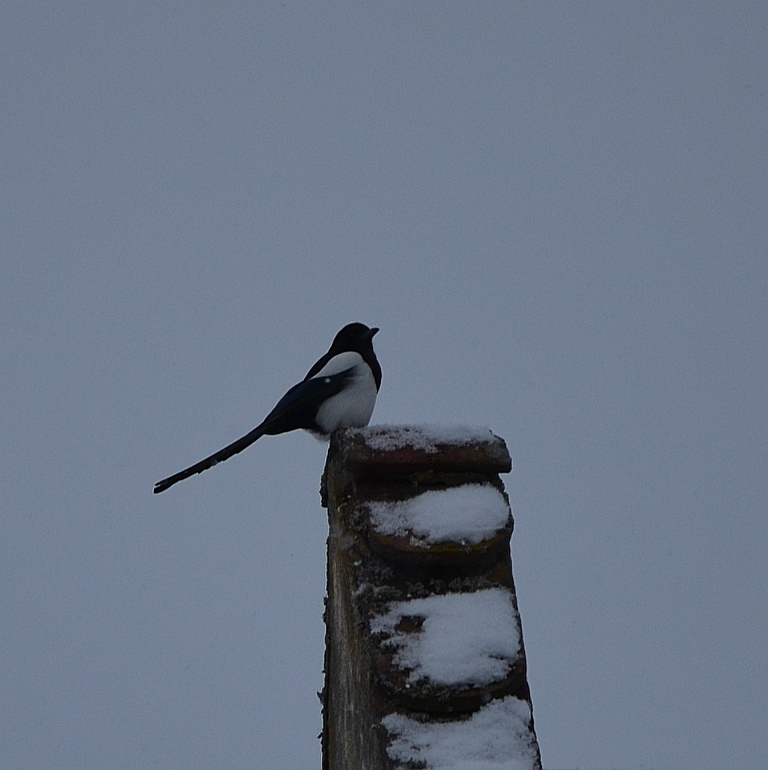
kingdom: Animalia
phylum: Chordata
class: Aves
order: Passeriformes
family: Corvidae
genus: Pica
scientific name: Pica pica
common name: Eurasian magpie
